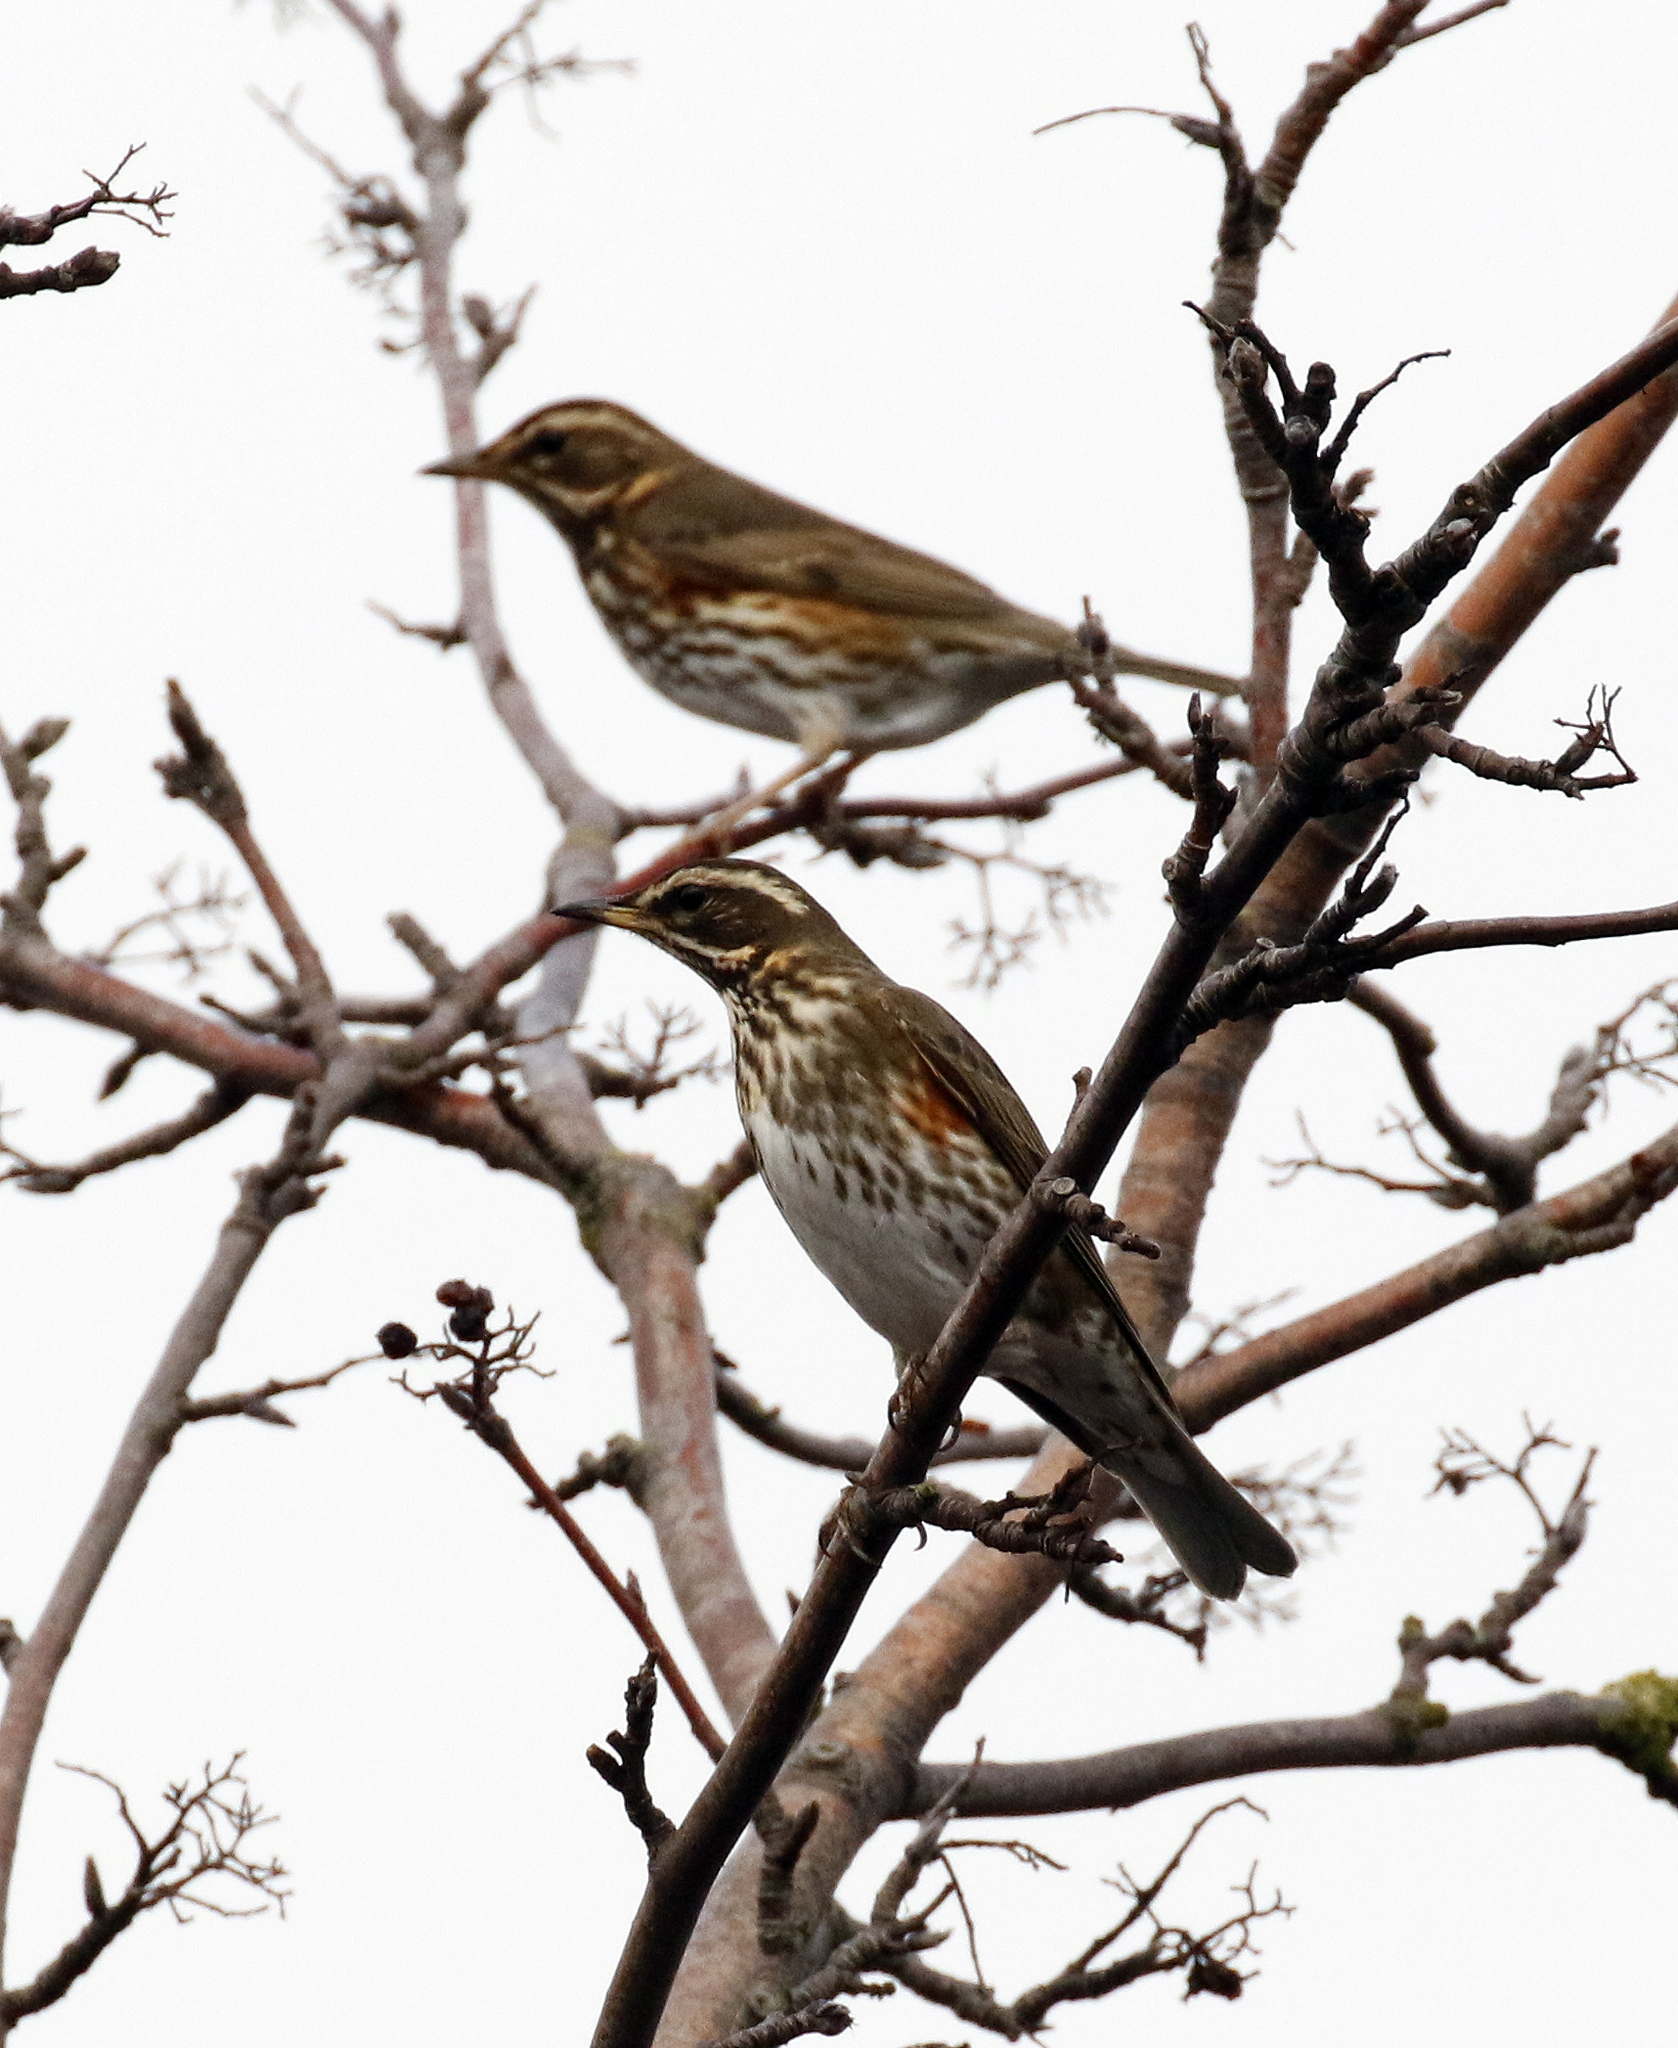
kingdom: Animalia
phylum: Chordata
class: Aves
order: Passeriformes
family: Turdidae
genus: Turdus
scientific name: Turdus iliacus
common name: Redwing
